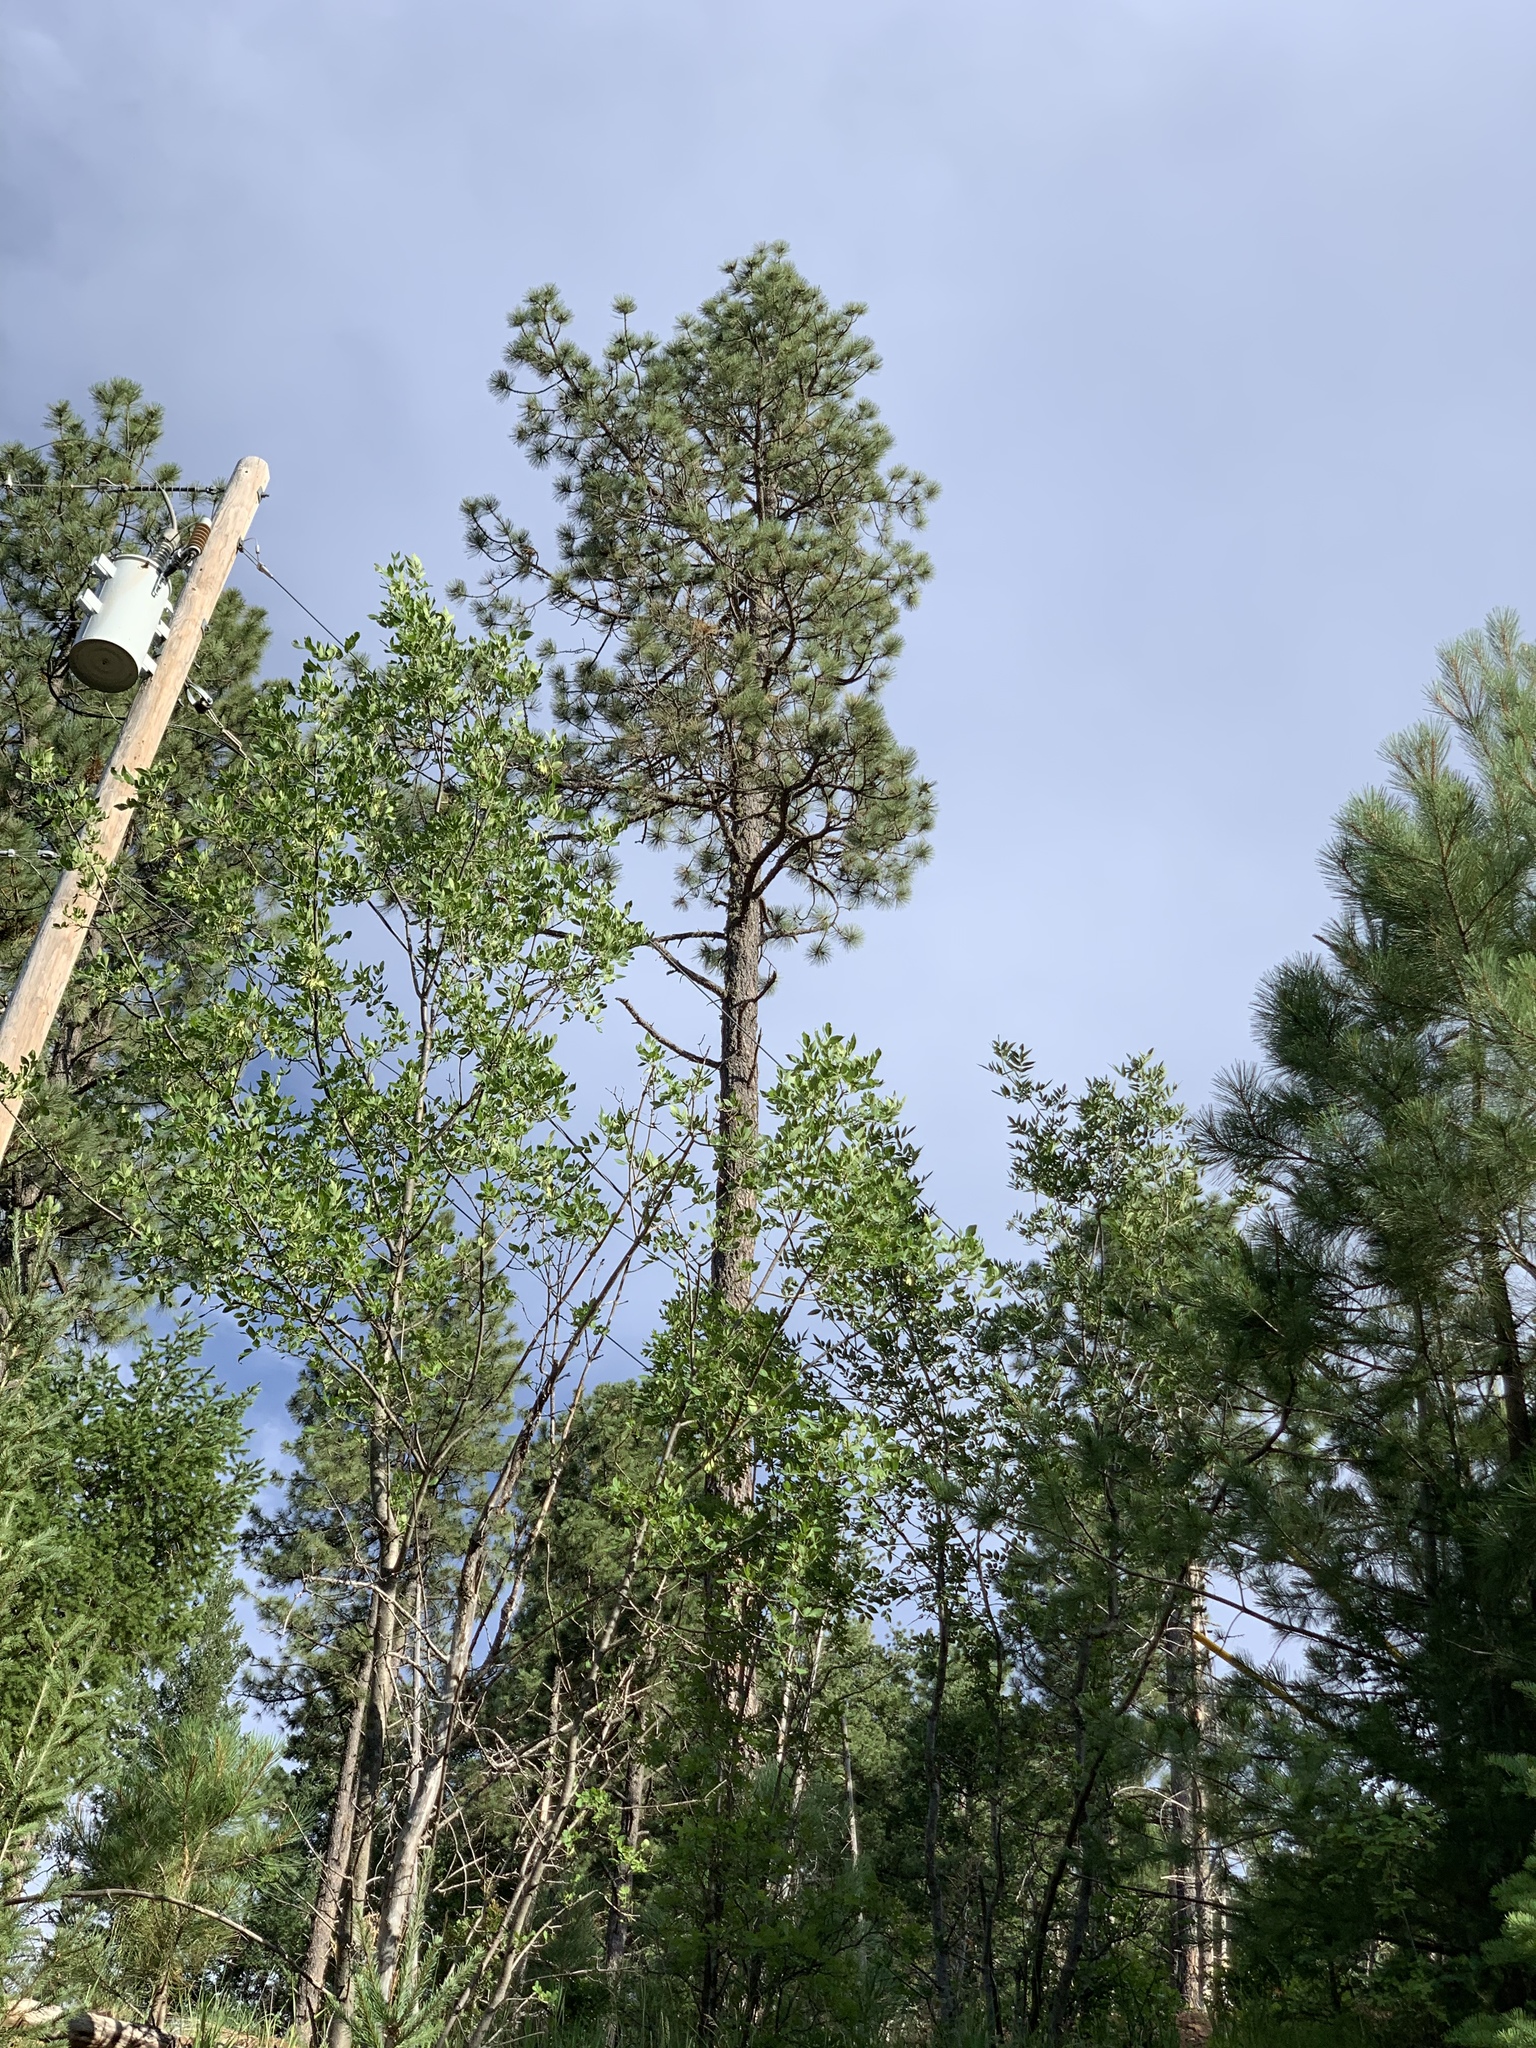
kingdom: Plantae
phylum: Tracheophyta
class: Pinopsida
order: Pinales
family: Pinaceae
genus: Pinus
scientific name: Pinus ponderosa
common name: Western yellow-pine
